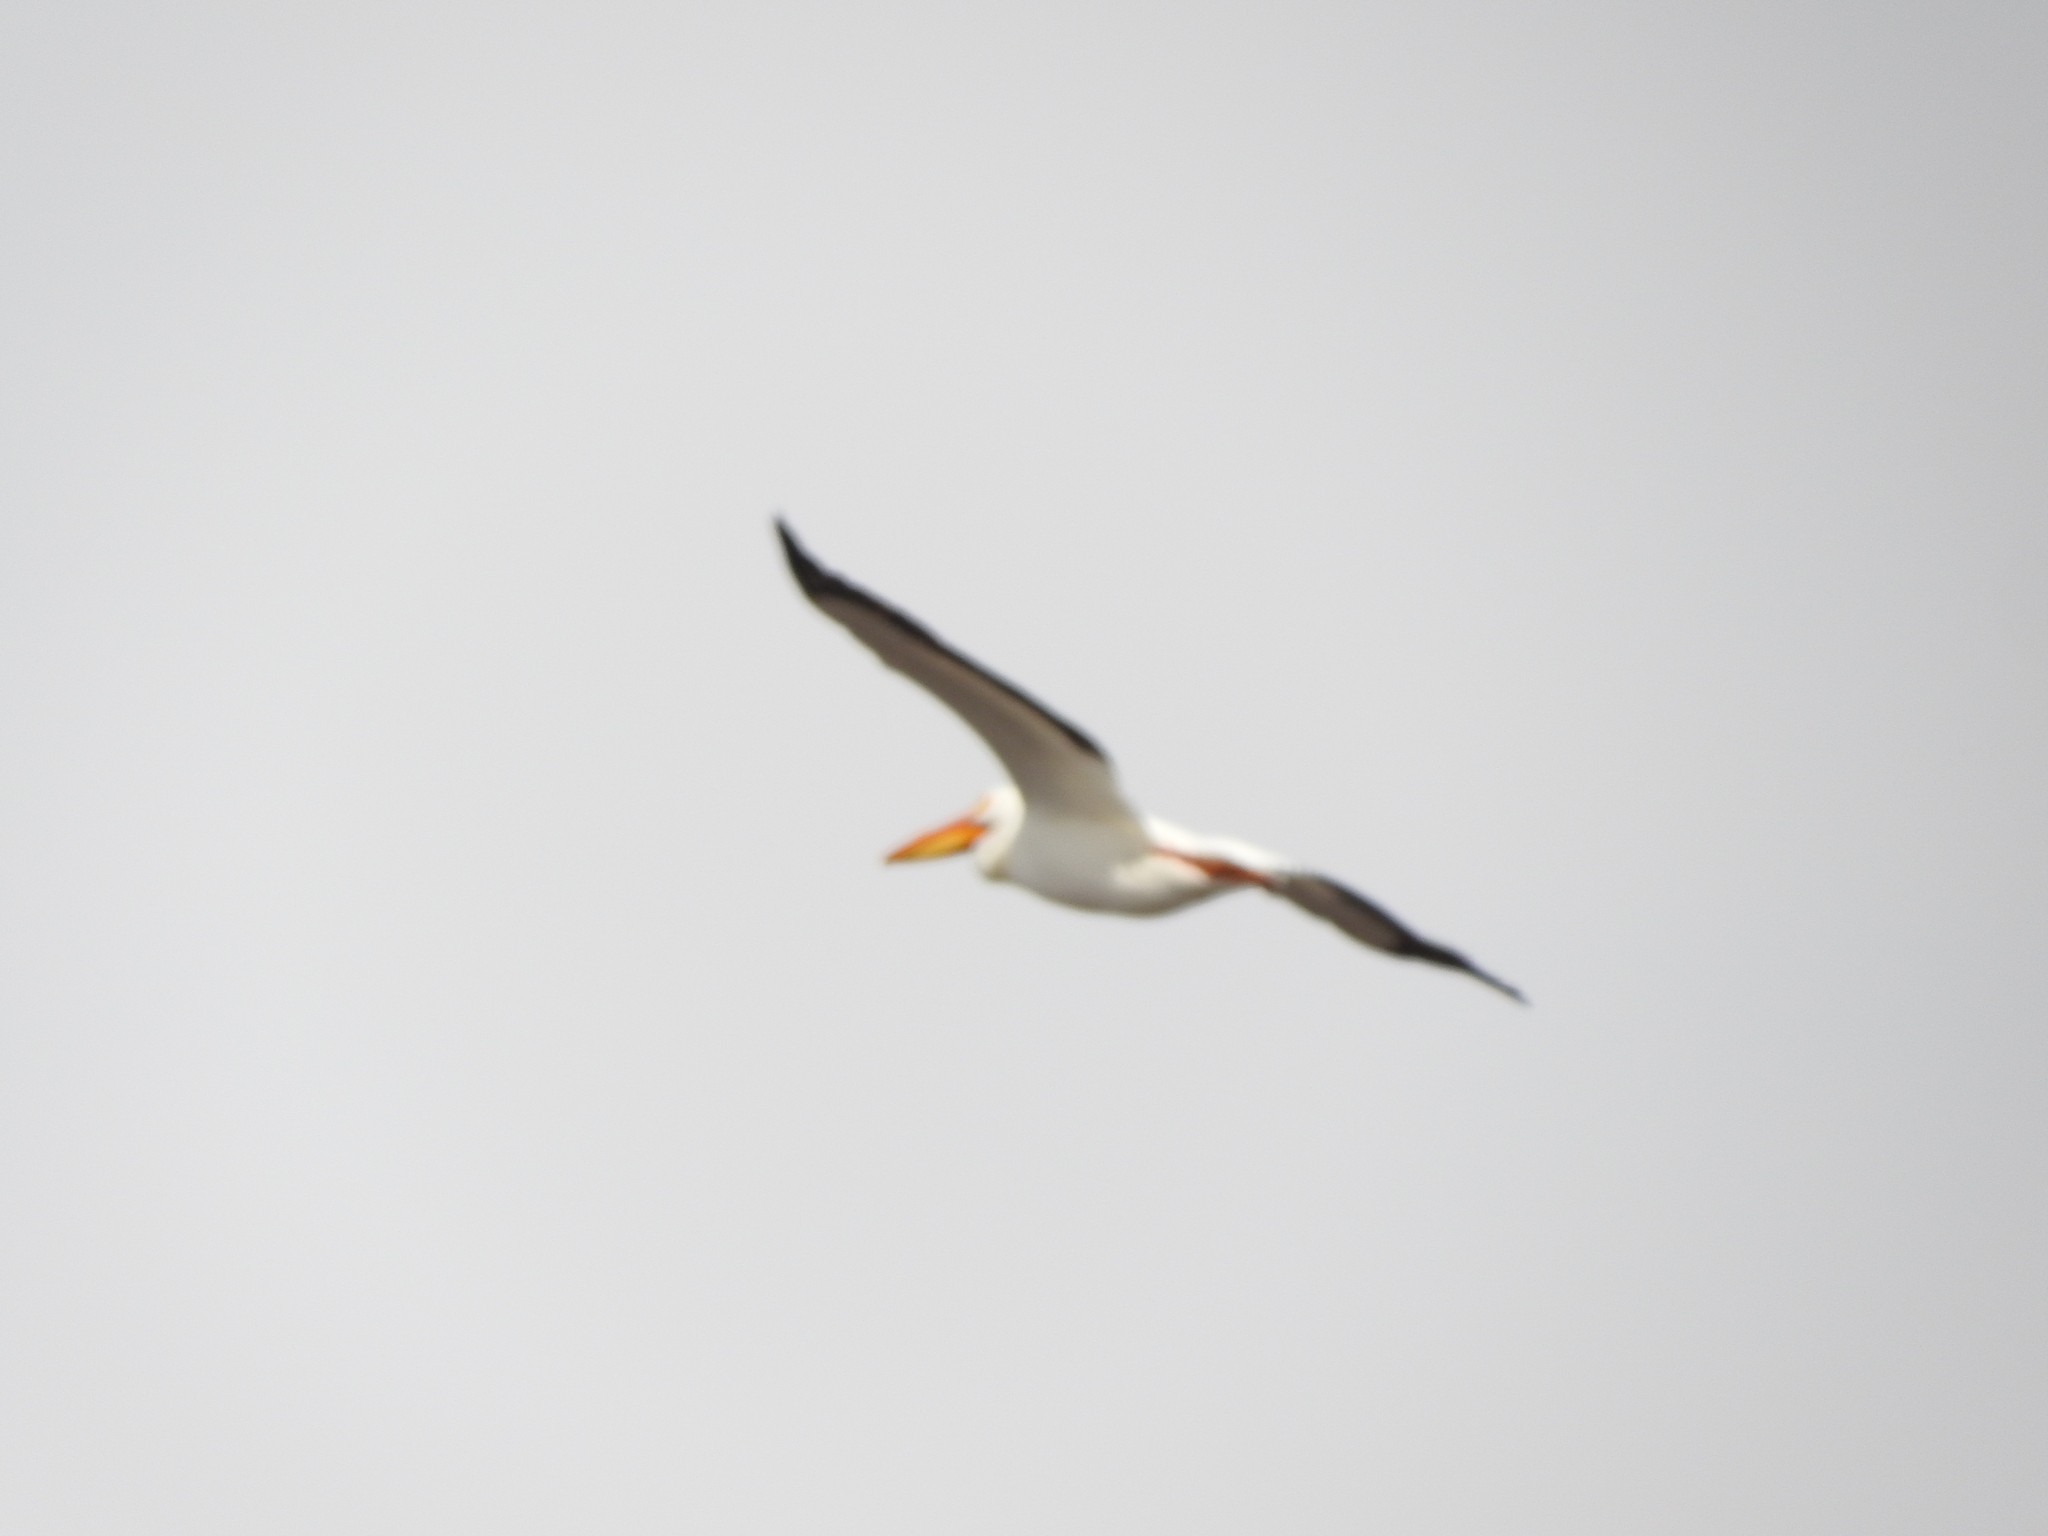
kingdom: Animalia
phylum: Chordata
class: Aves
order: Pelecaniformes
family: Pelecanidae
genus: Pelecanus
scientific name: Pelecanus erythrorhynchos
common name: American white pelican
